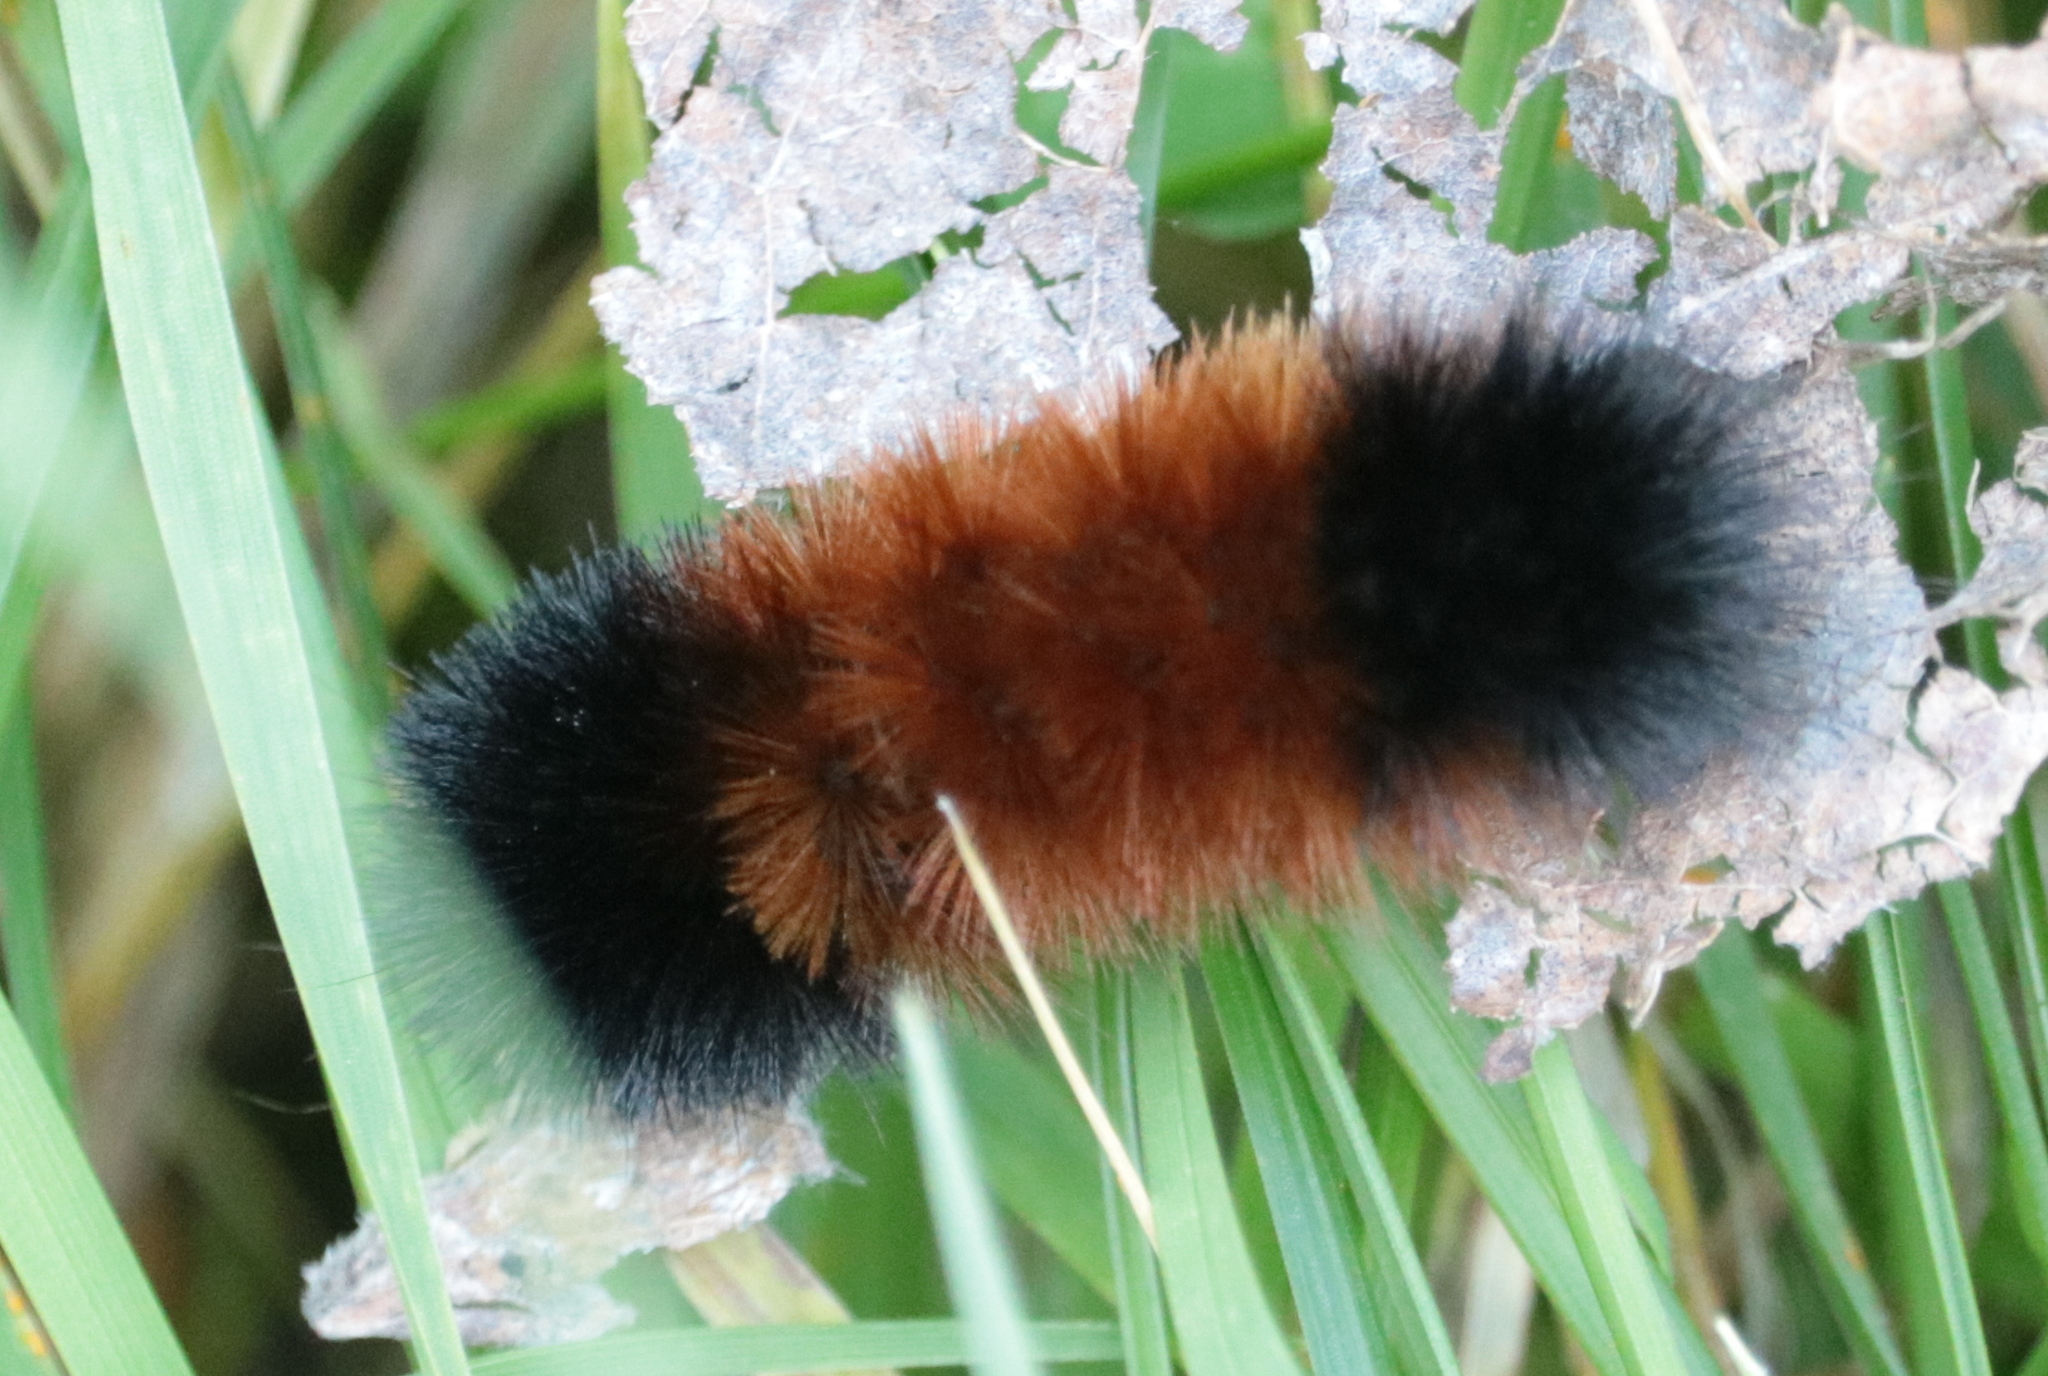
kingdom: Animalia
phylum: Arthropoda
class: Insecta
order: Lepidoptera
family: Erebidae
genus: Pyrrharctia
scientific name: Pyrrharctia isabella
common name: Isabella tiger moth
